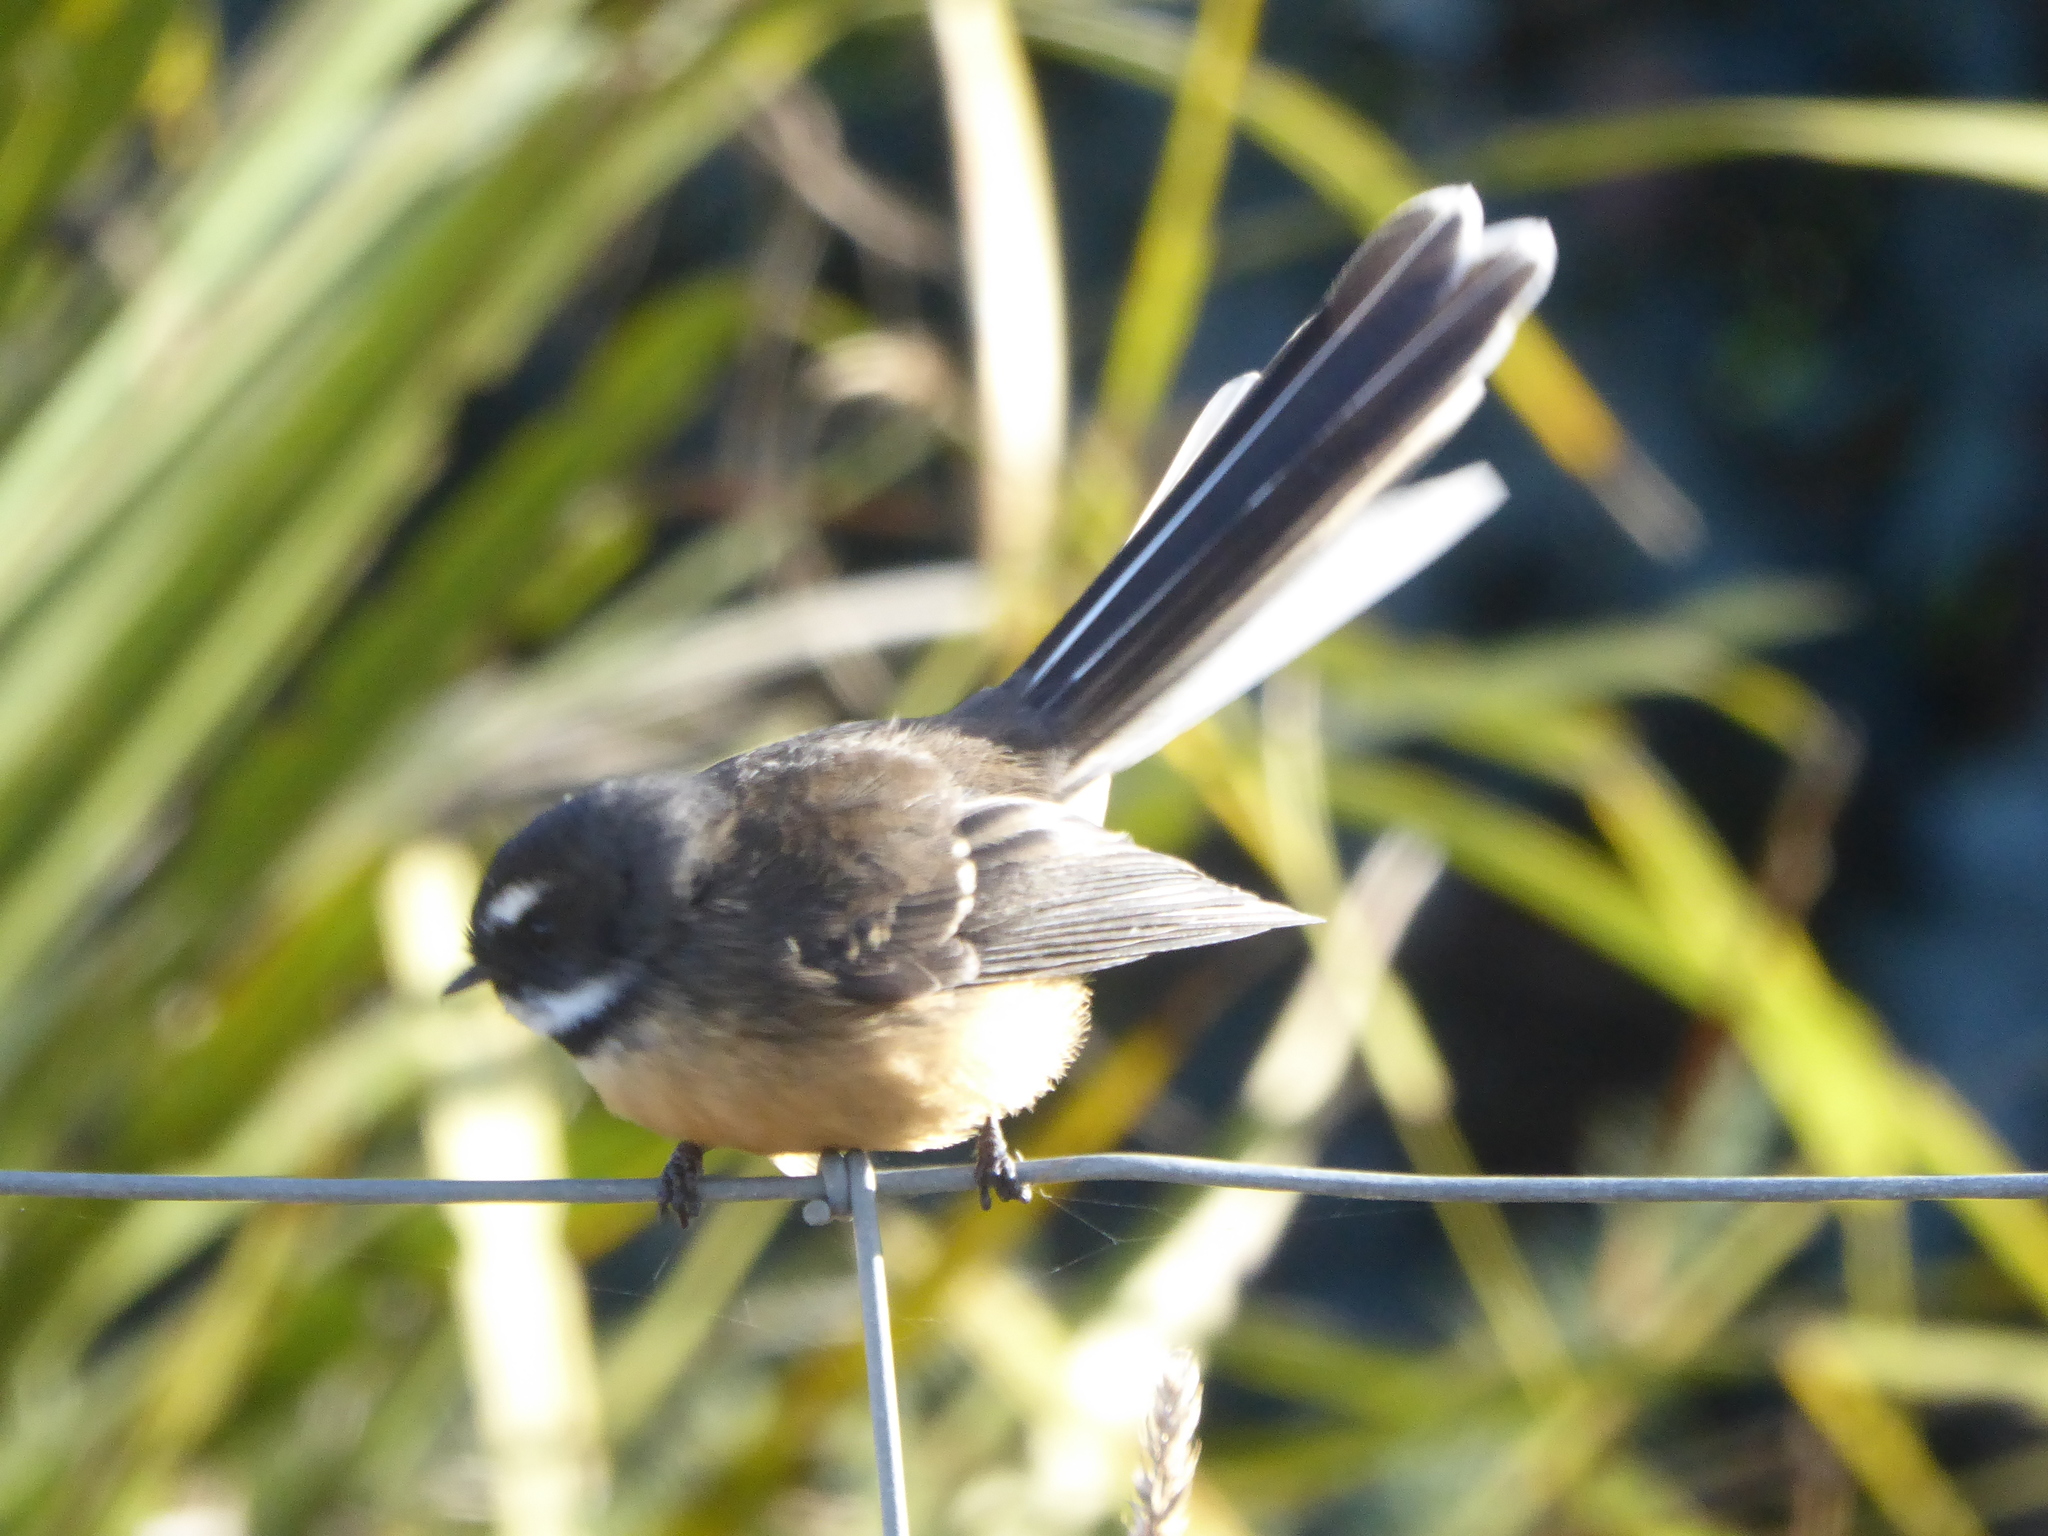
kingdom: Animalia
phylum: Chordata
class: Aves
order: Passeriformes
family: Rhipiduridae
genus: Rhipidura
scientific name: Rhipidura fuliginosa
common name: New zealand fantail
